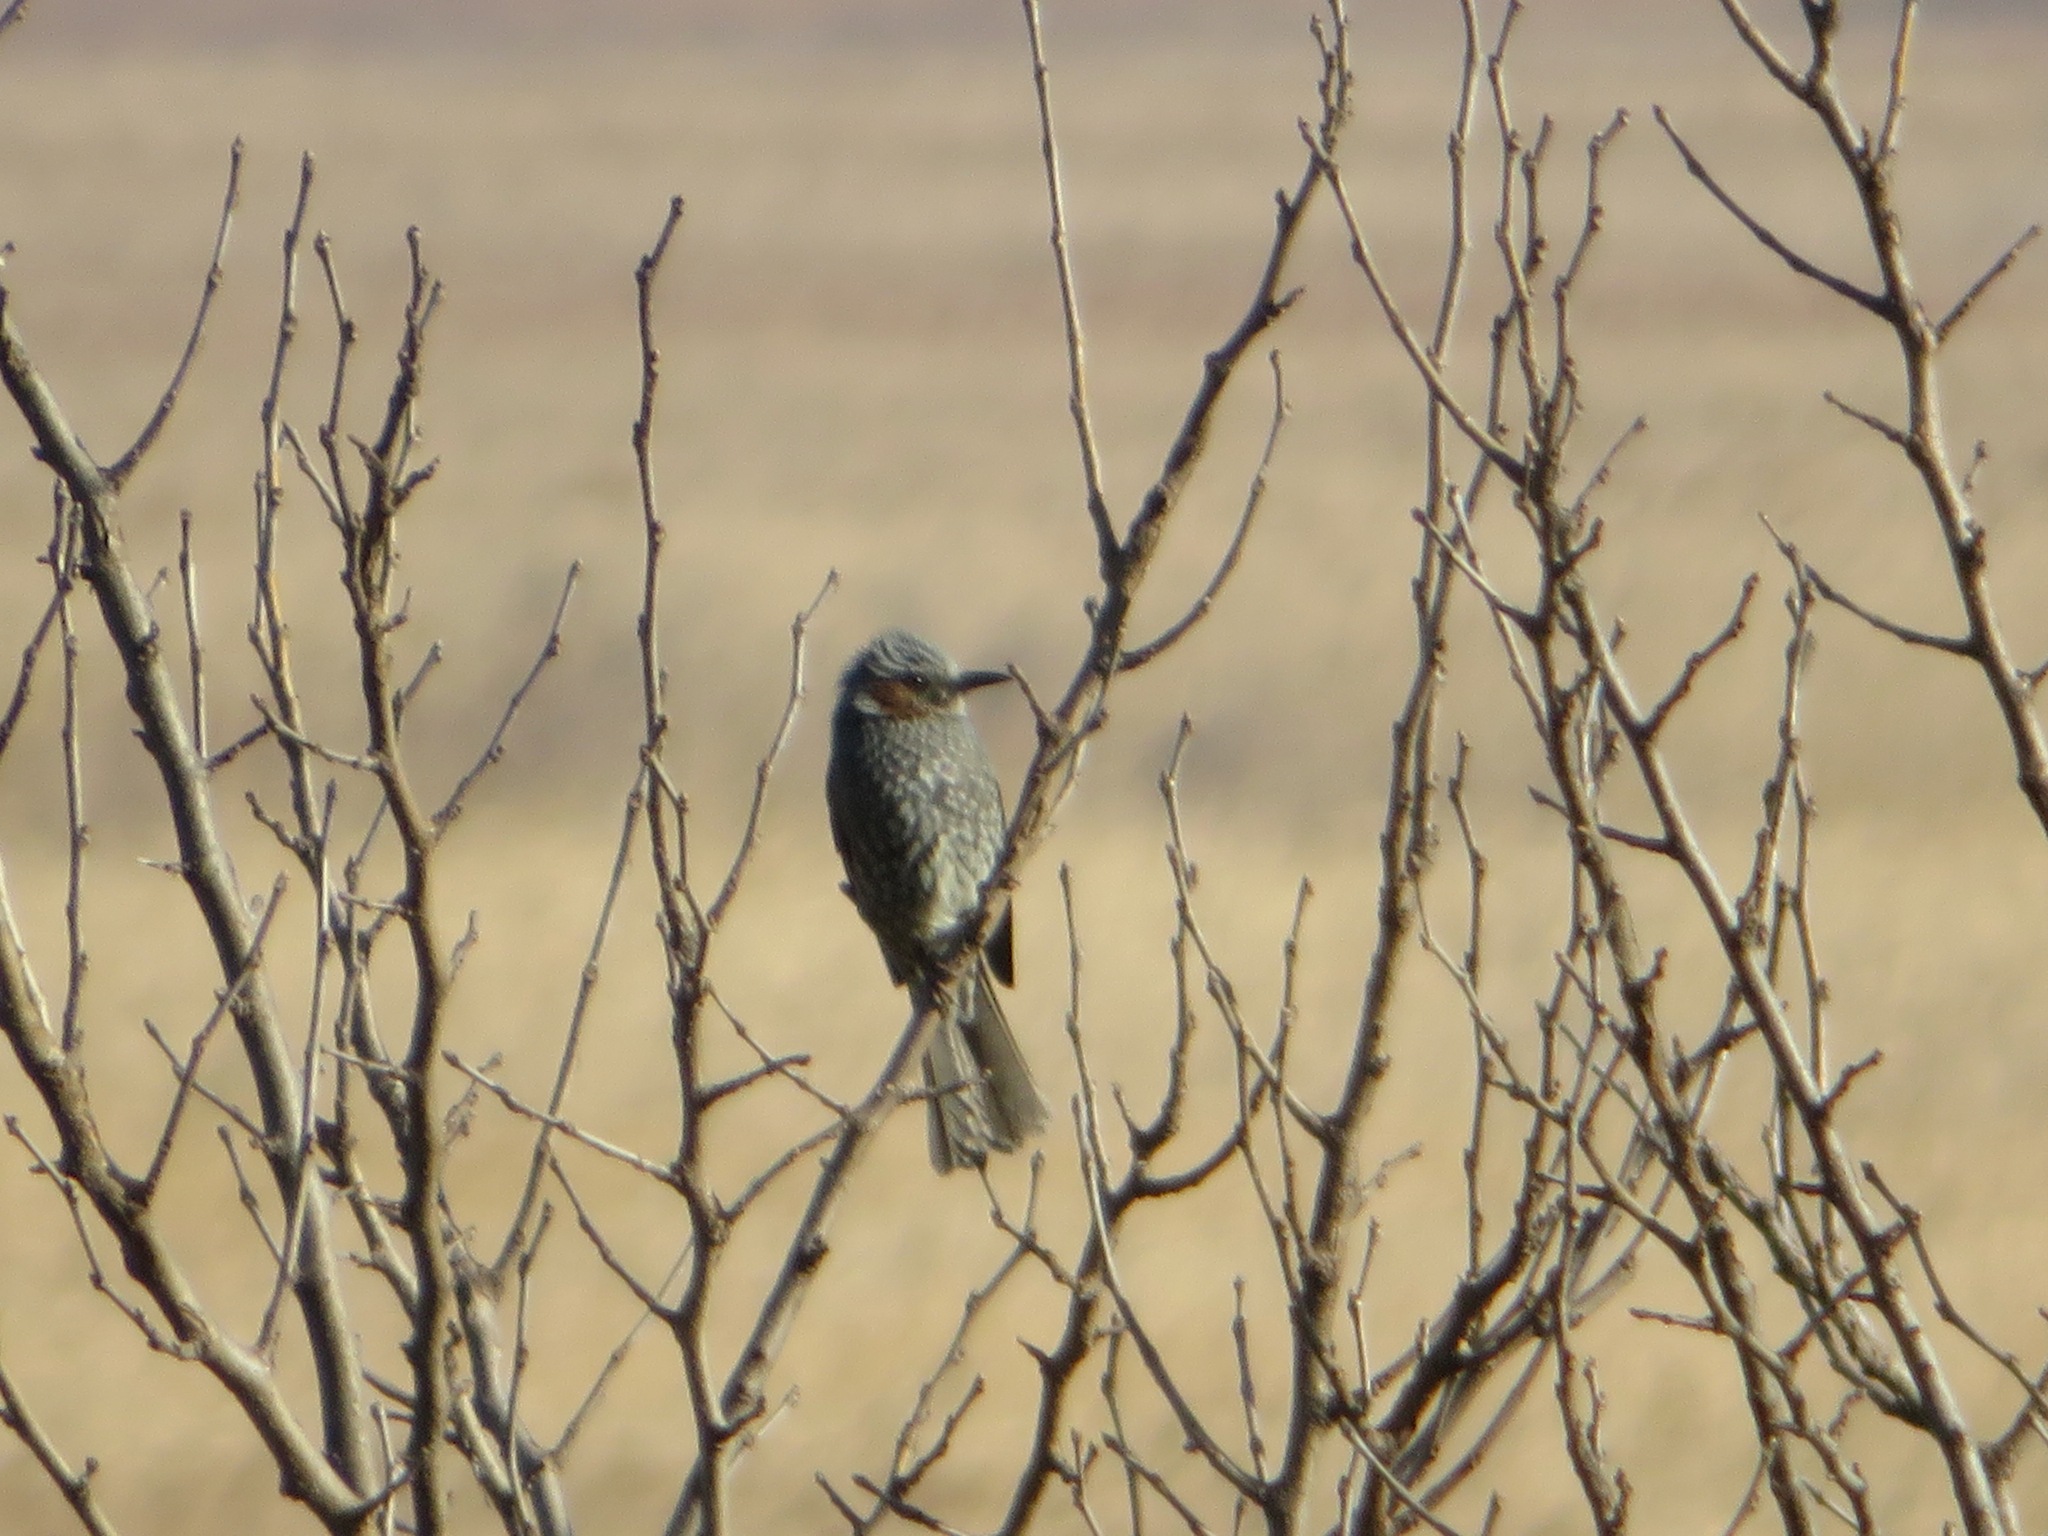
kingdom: Animalia
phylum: Chordata
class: Aves
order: Passeriformes
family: Pycnonotidae
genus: Hypsipetes
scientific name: Hypsipetes amaurotis
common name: Brown-eared bulbul
